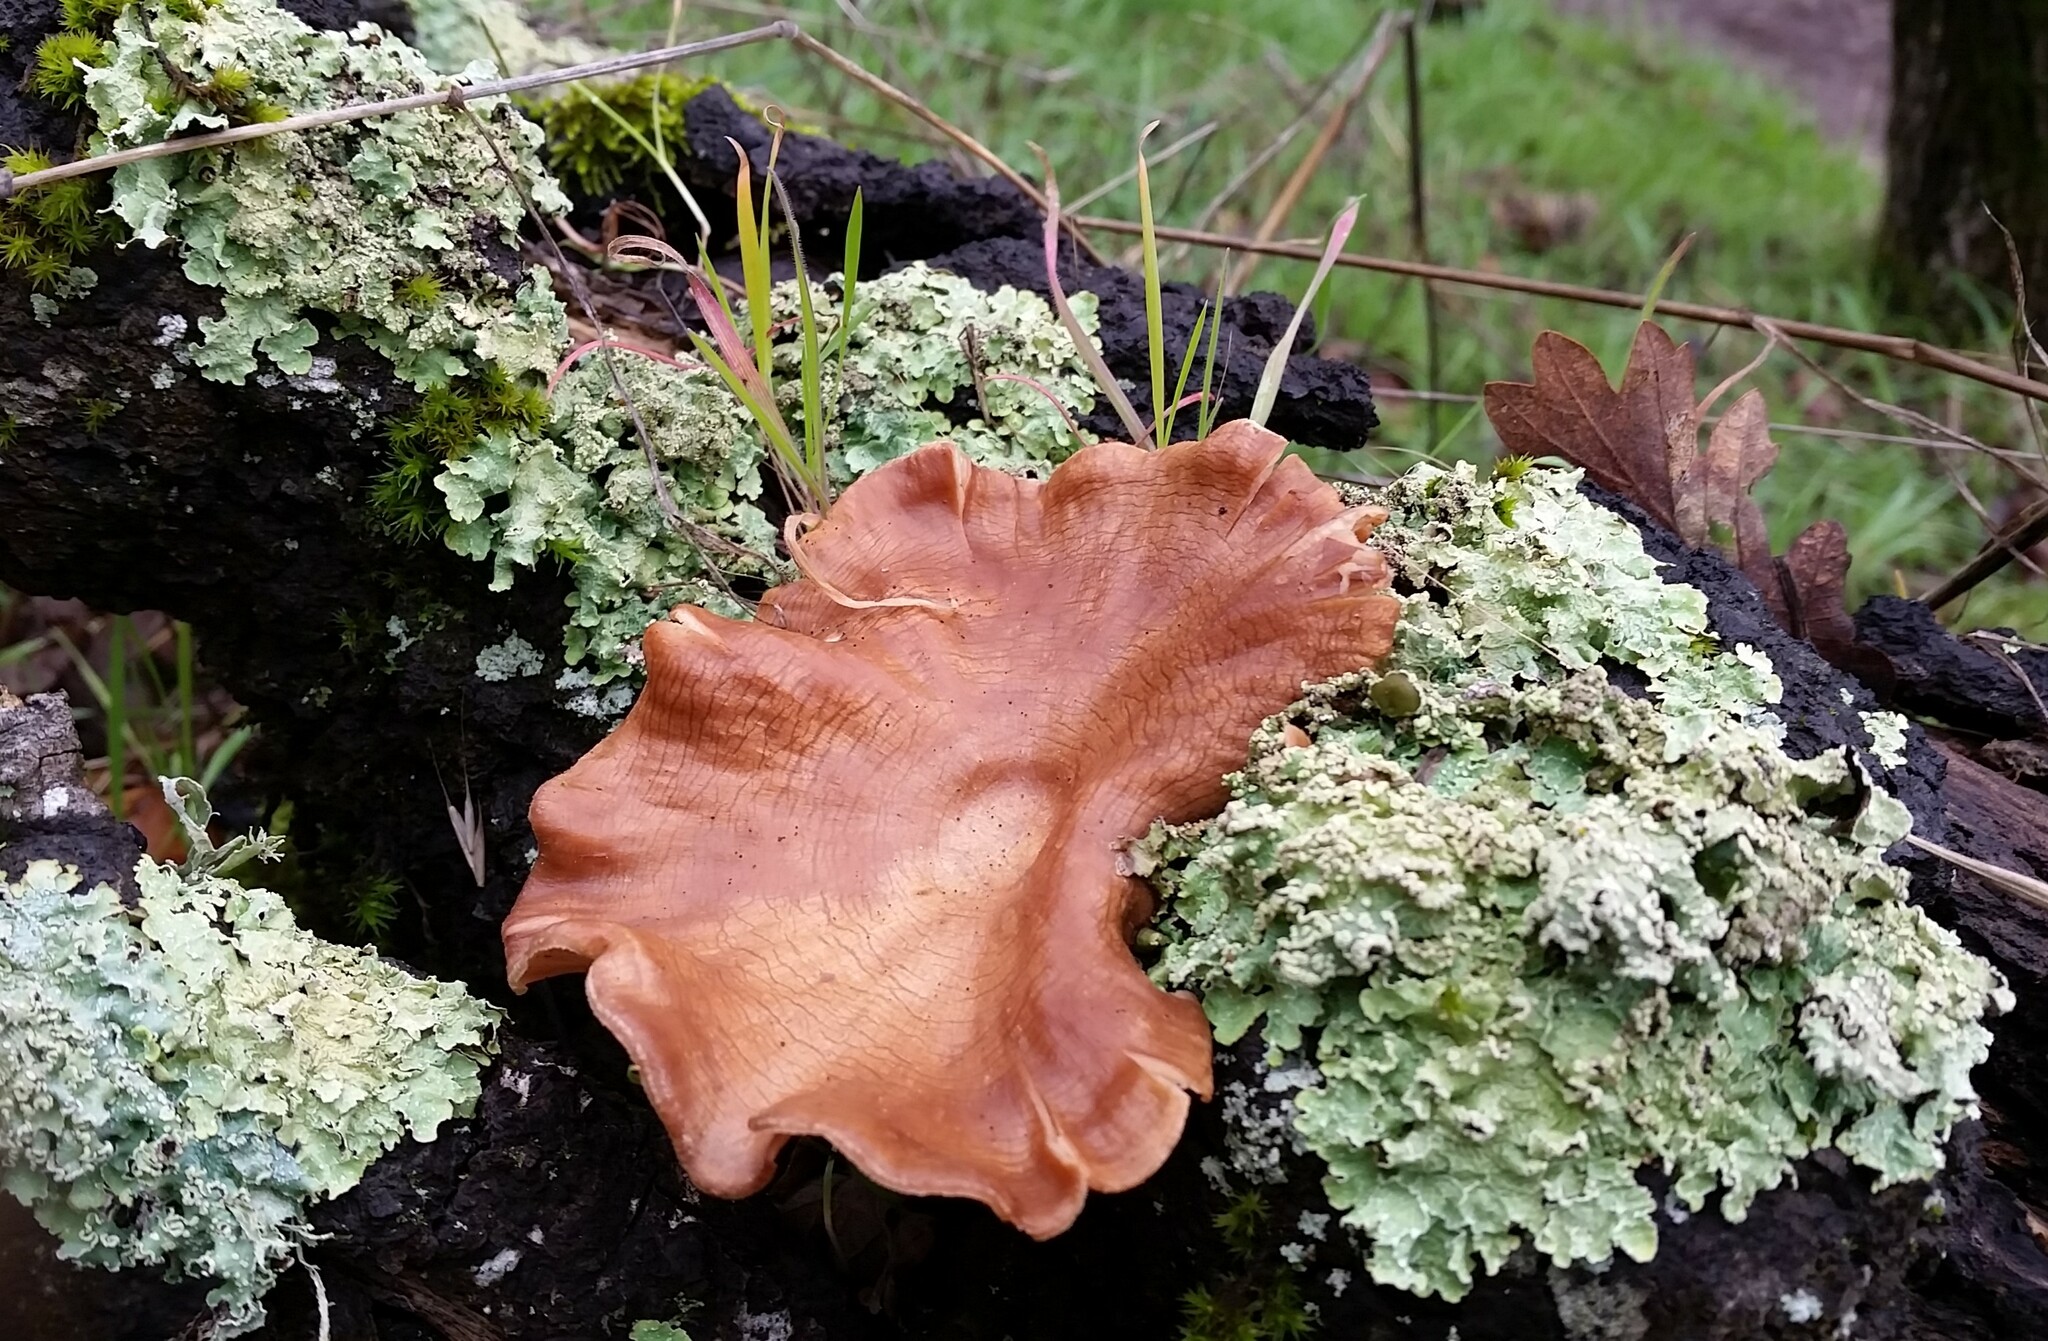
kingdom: Fungi
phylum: Basidiomycota
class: Agaricomycetes
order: Polyporales
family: Panaceae
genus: Panus
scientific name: Panus conchatus
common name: Lilac oysterling
